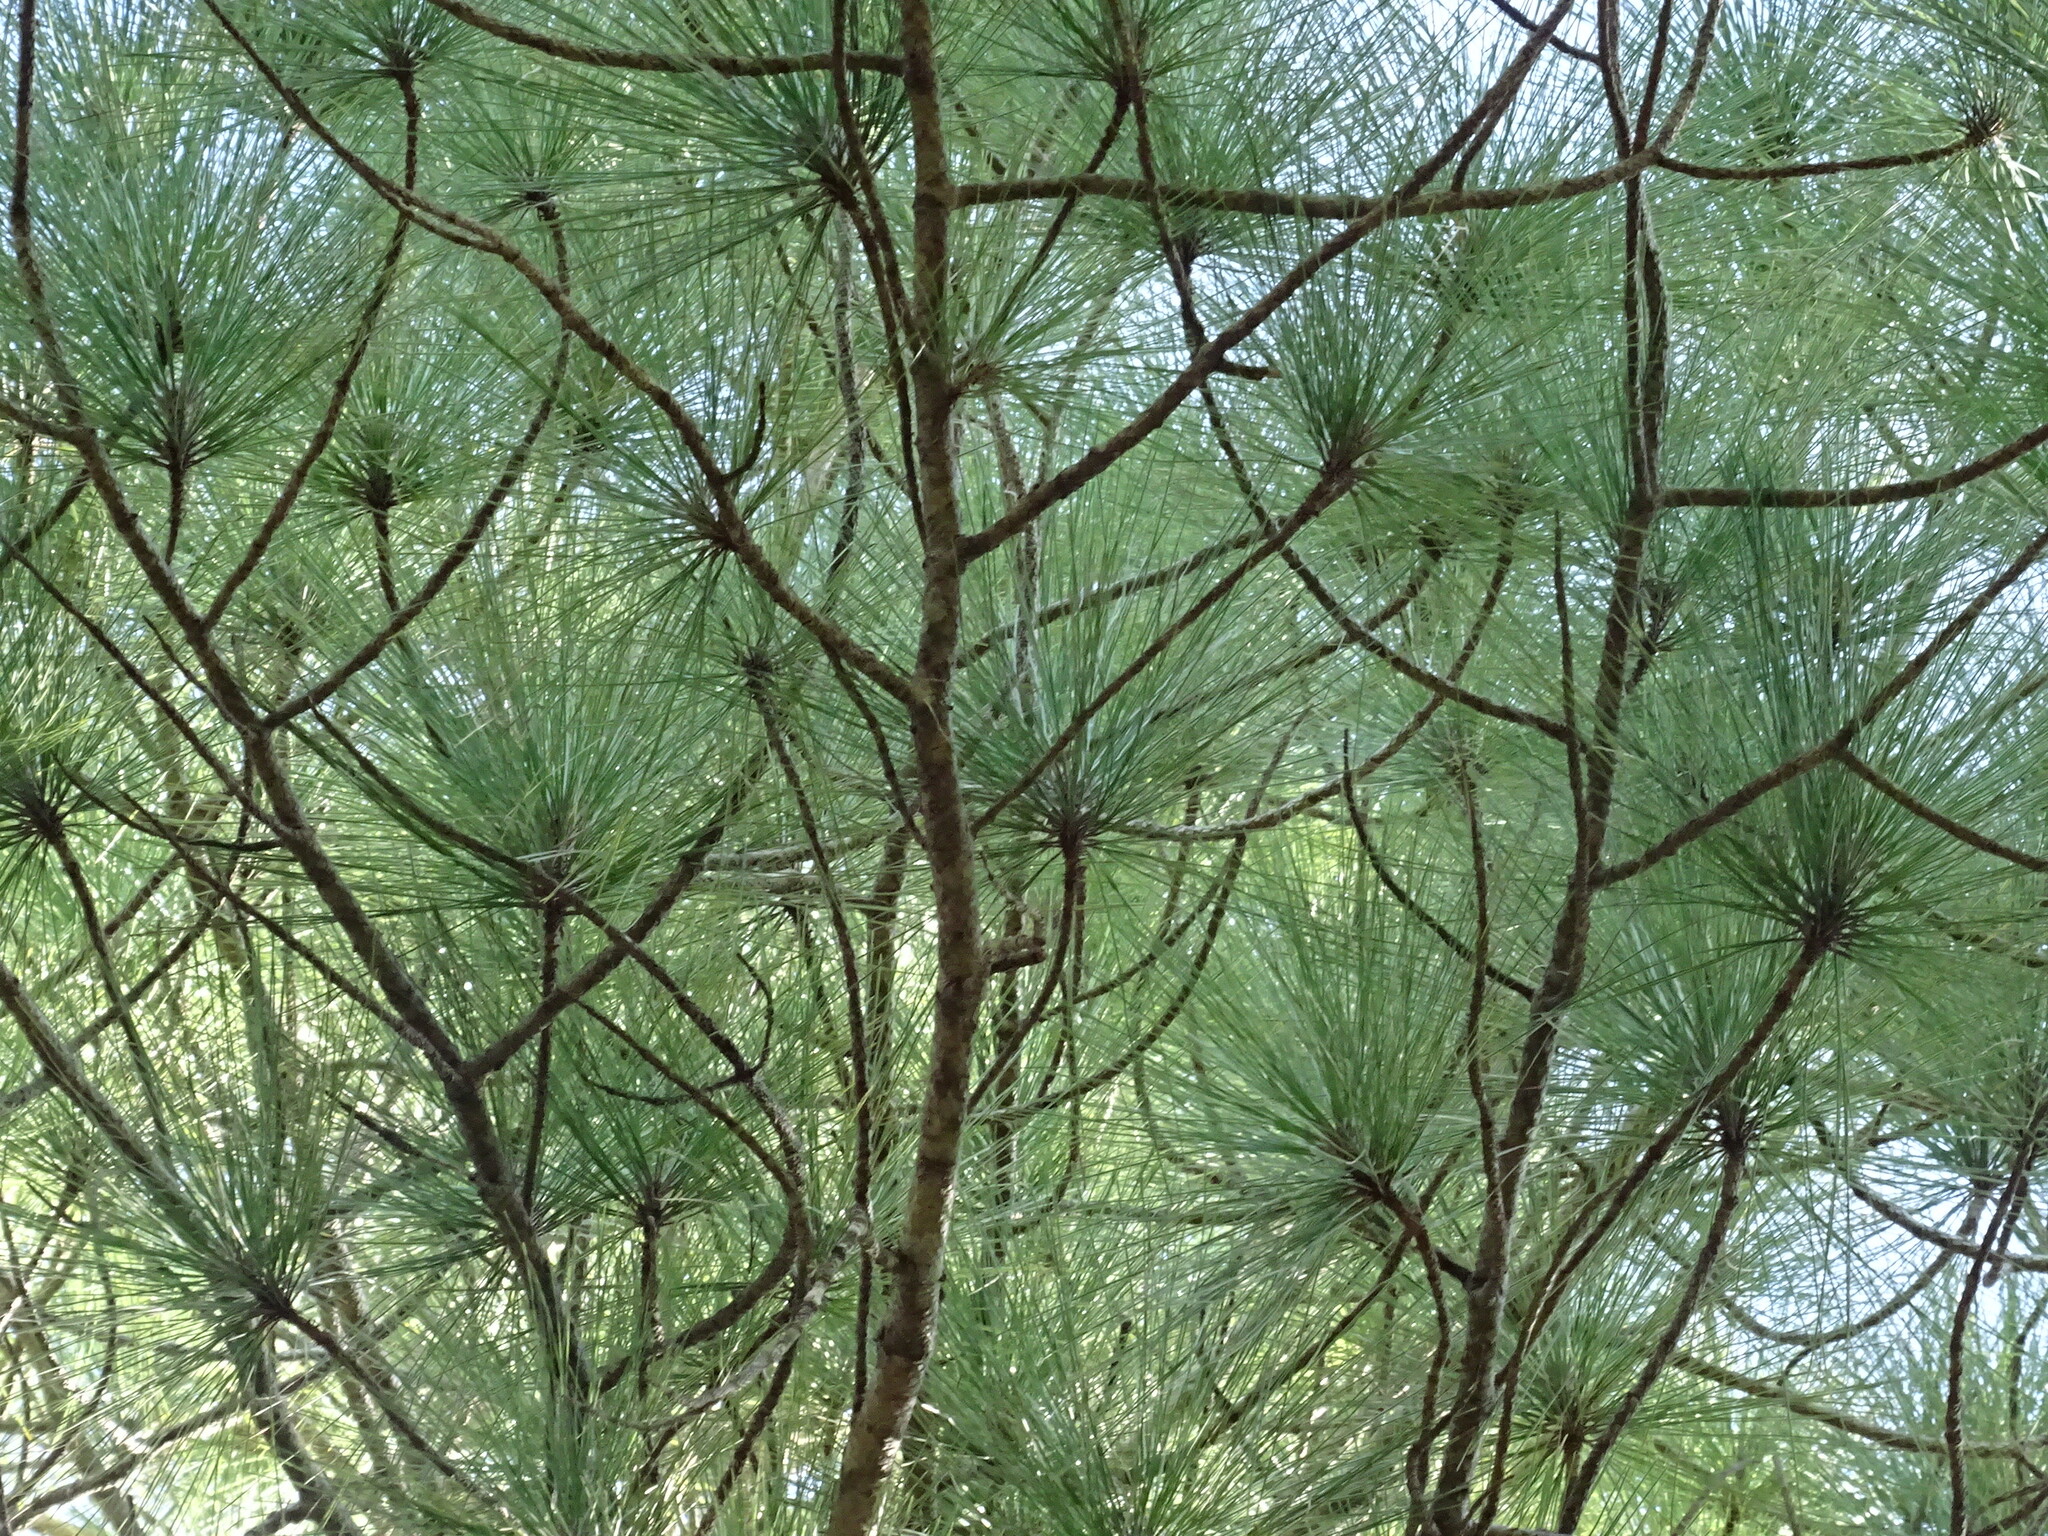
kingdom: Plantae
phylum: Tracheophyta
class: Pinopsida
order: Pinales
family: Pinaceae
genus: Pinus
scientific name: Pinus canariensis
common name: Canary islands pine
